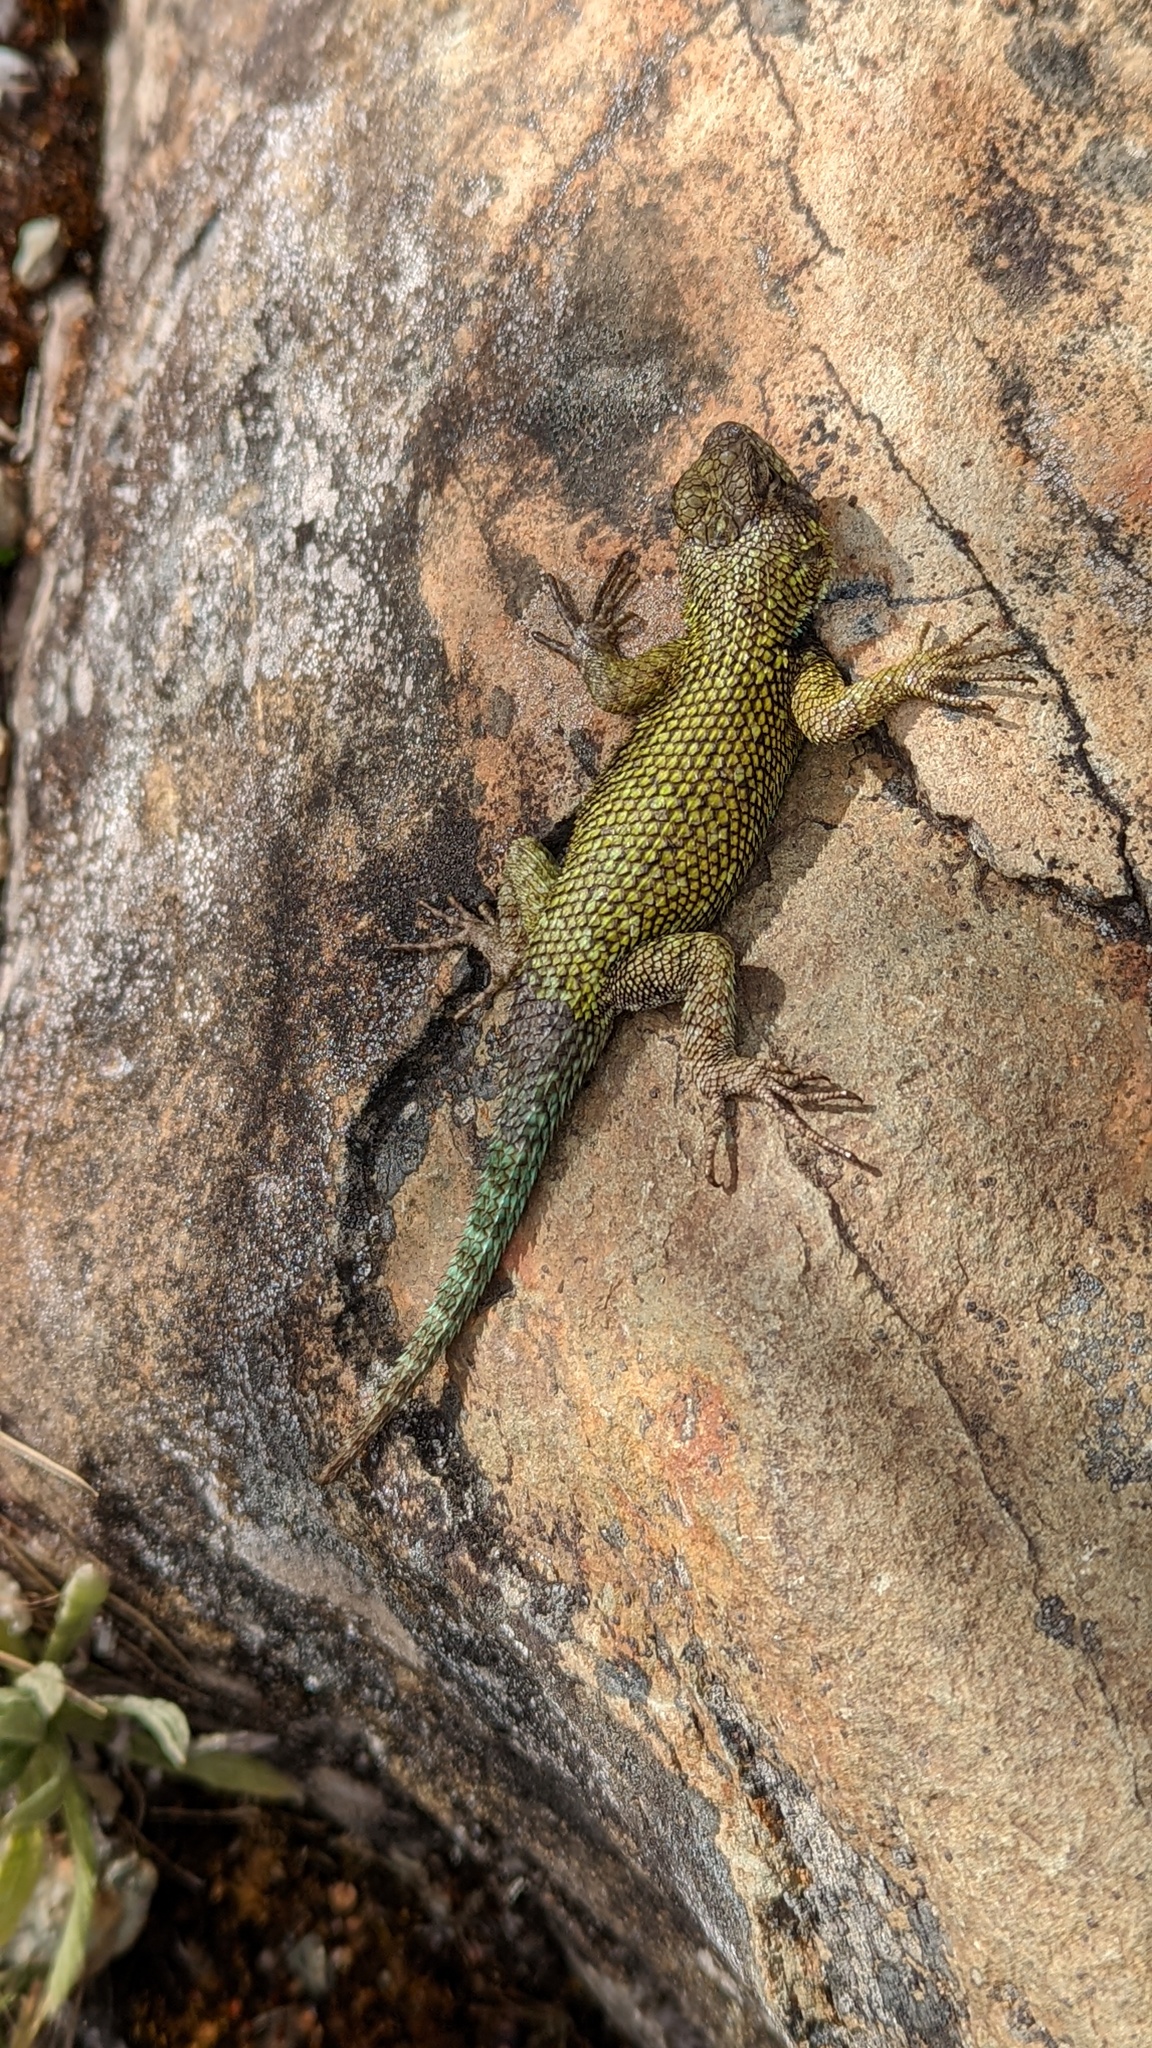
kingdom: Animalia
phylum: Chordata
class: Squamata
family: Phrynosomatidae
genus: Sceloporus
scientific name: Sceloporus malachiticus
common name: Green spiny lizard
